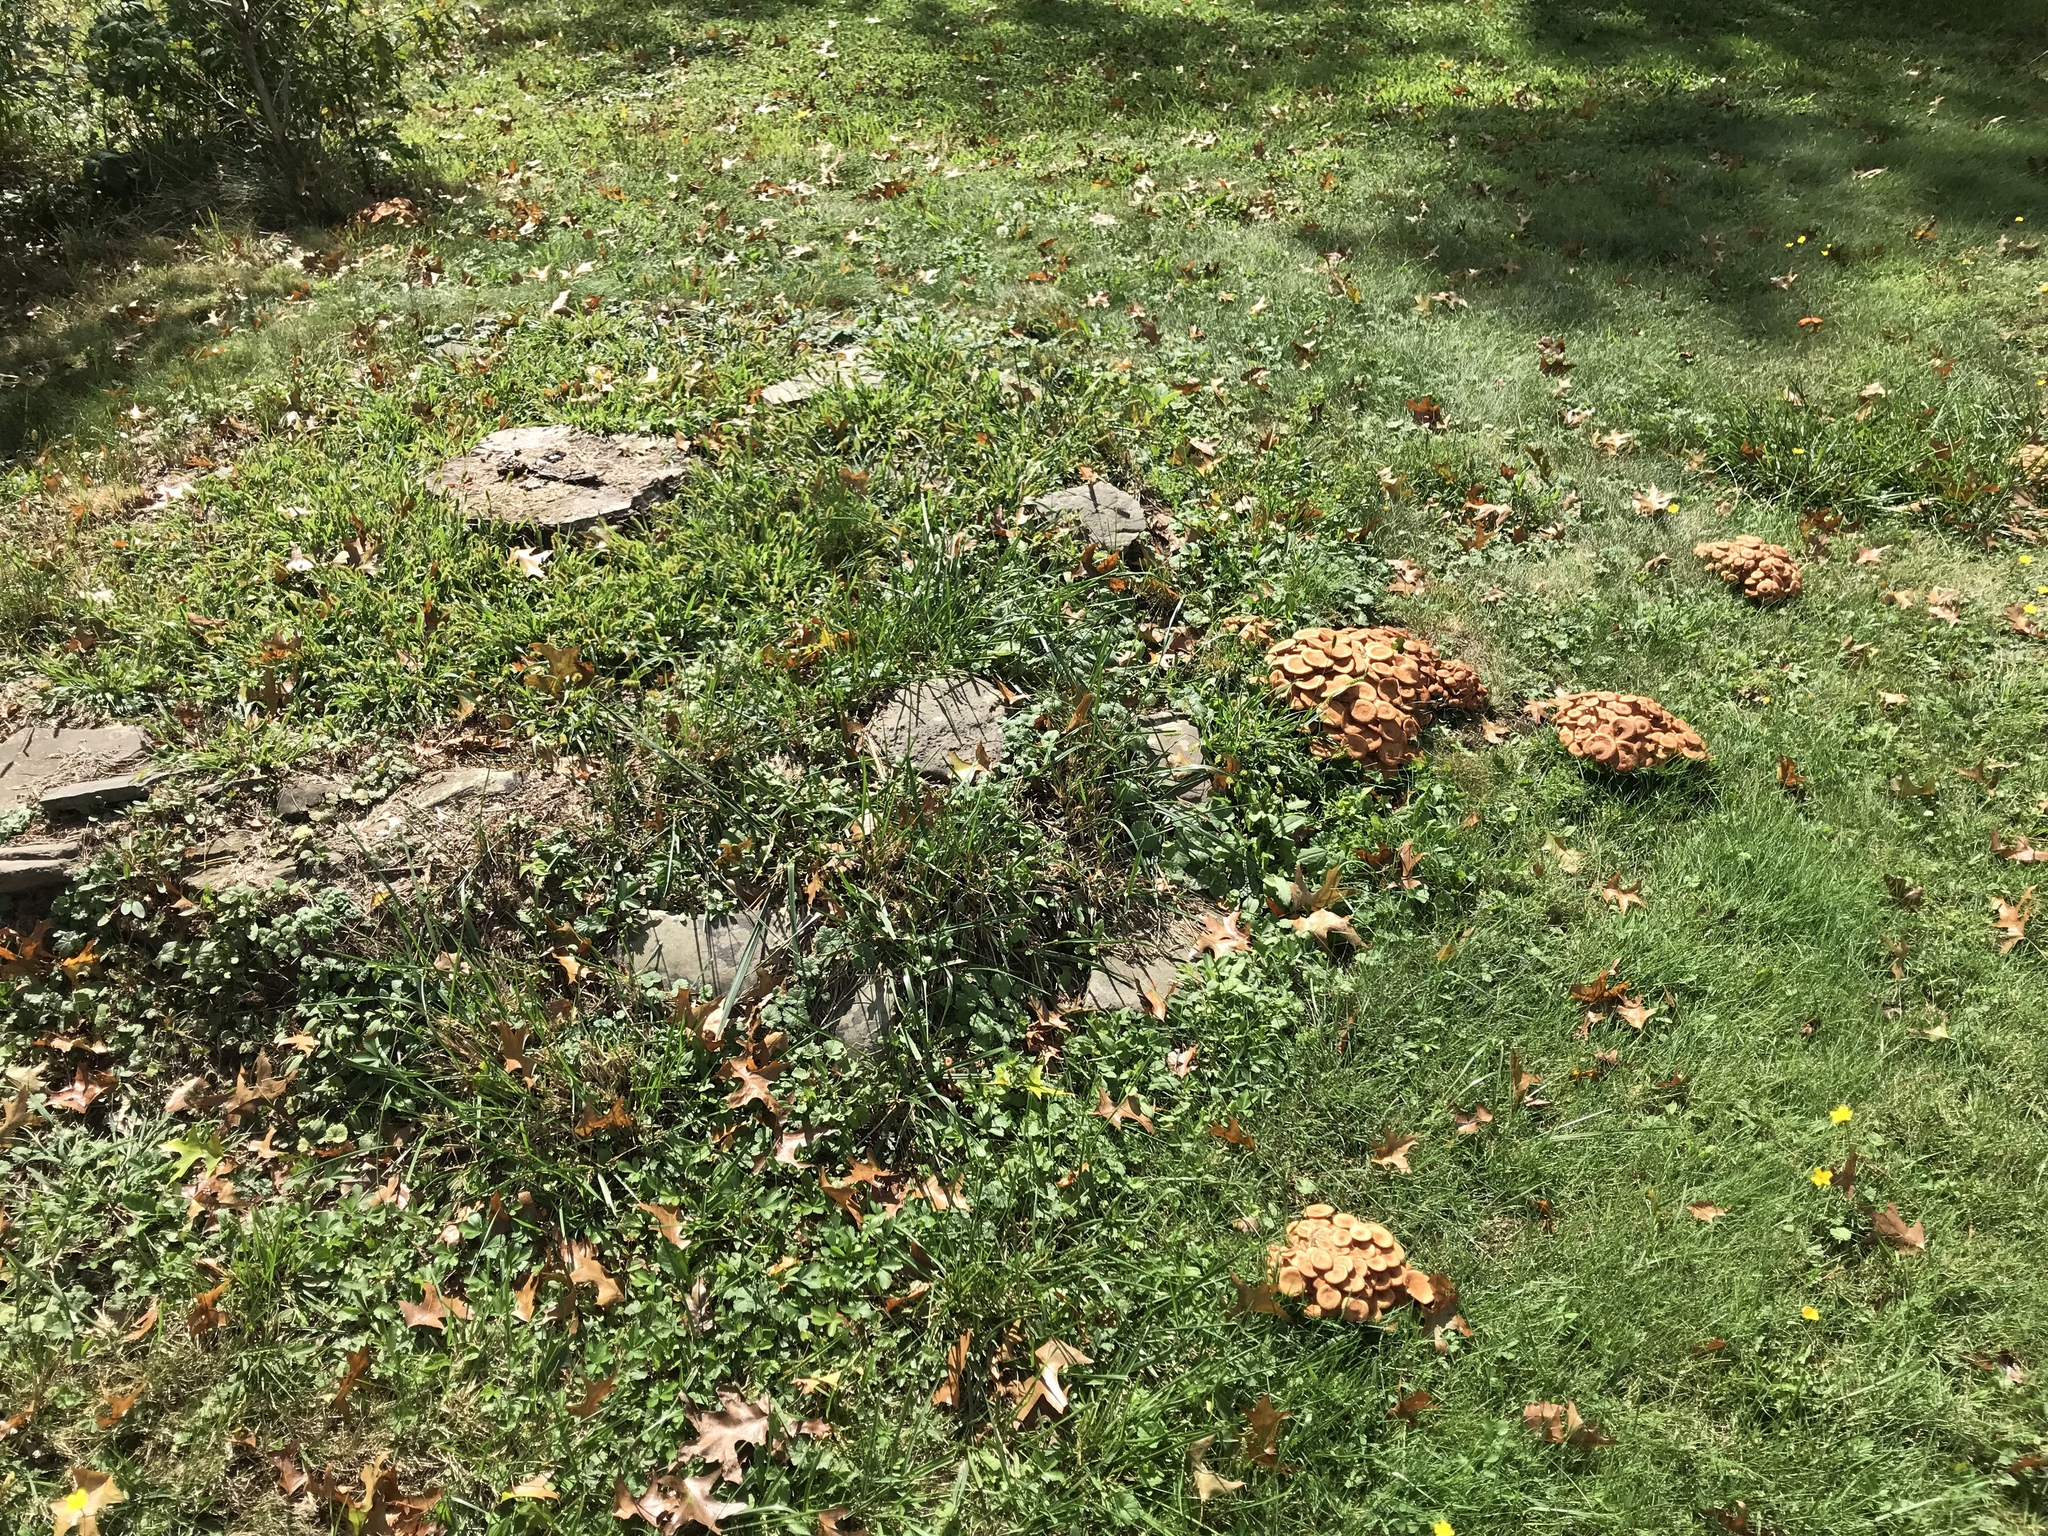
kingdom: Fungi
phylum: Basidiomycota
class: Agaricomycetes
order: Agaricales
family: Physalacriaceae
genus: Desarmillaria
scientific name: Desarmillaria caespitosa
